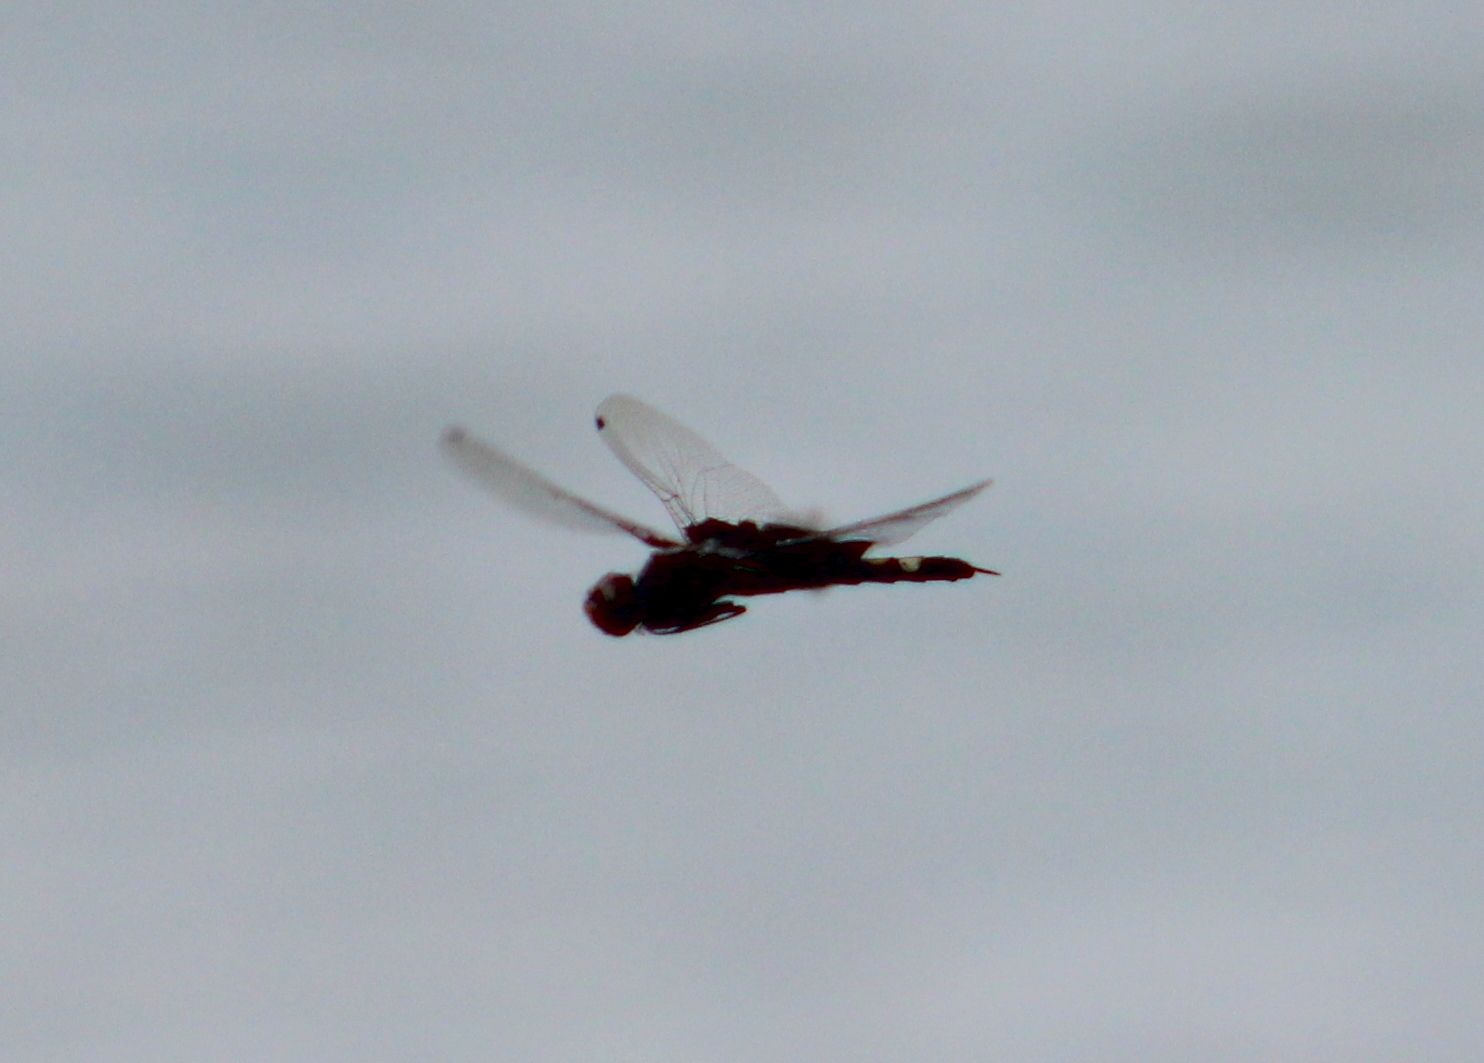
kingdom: Animalia
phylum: Arthropoda
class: Insecta
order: Odonata
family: Libellulidae
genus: Tramea
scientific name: Tramea lacerata
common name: Black saddlebags
